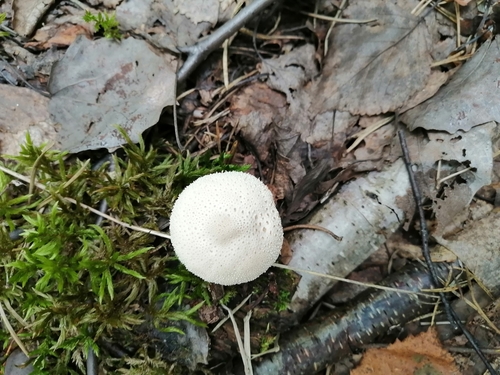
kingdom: Fungi
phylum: Basidiomycota
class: Agaricomycetes
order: Agaricales
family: Lycoperdaceae
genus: Lycoperdon
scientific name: Lycoperdon perlatum
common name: Common puffball
